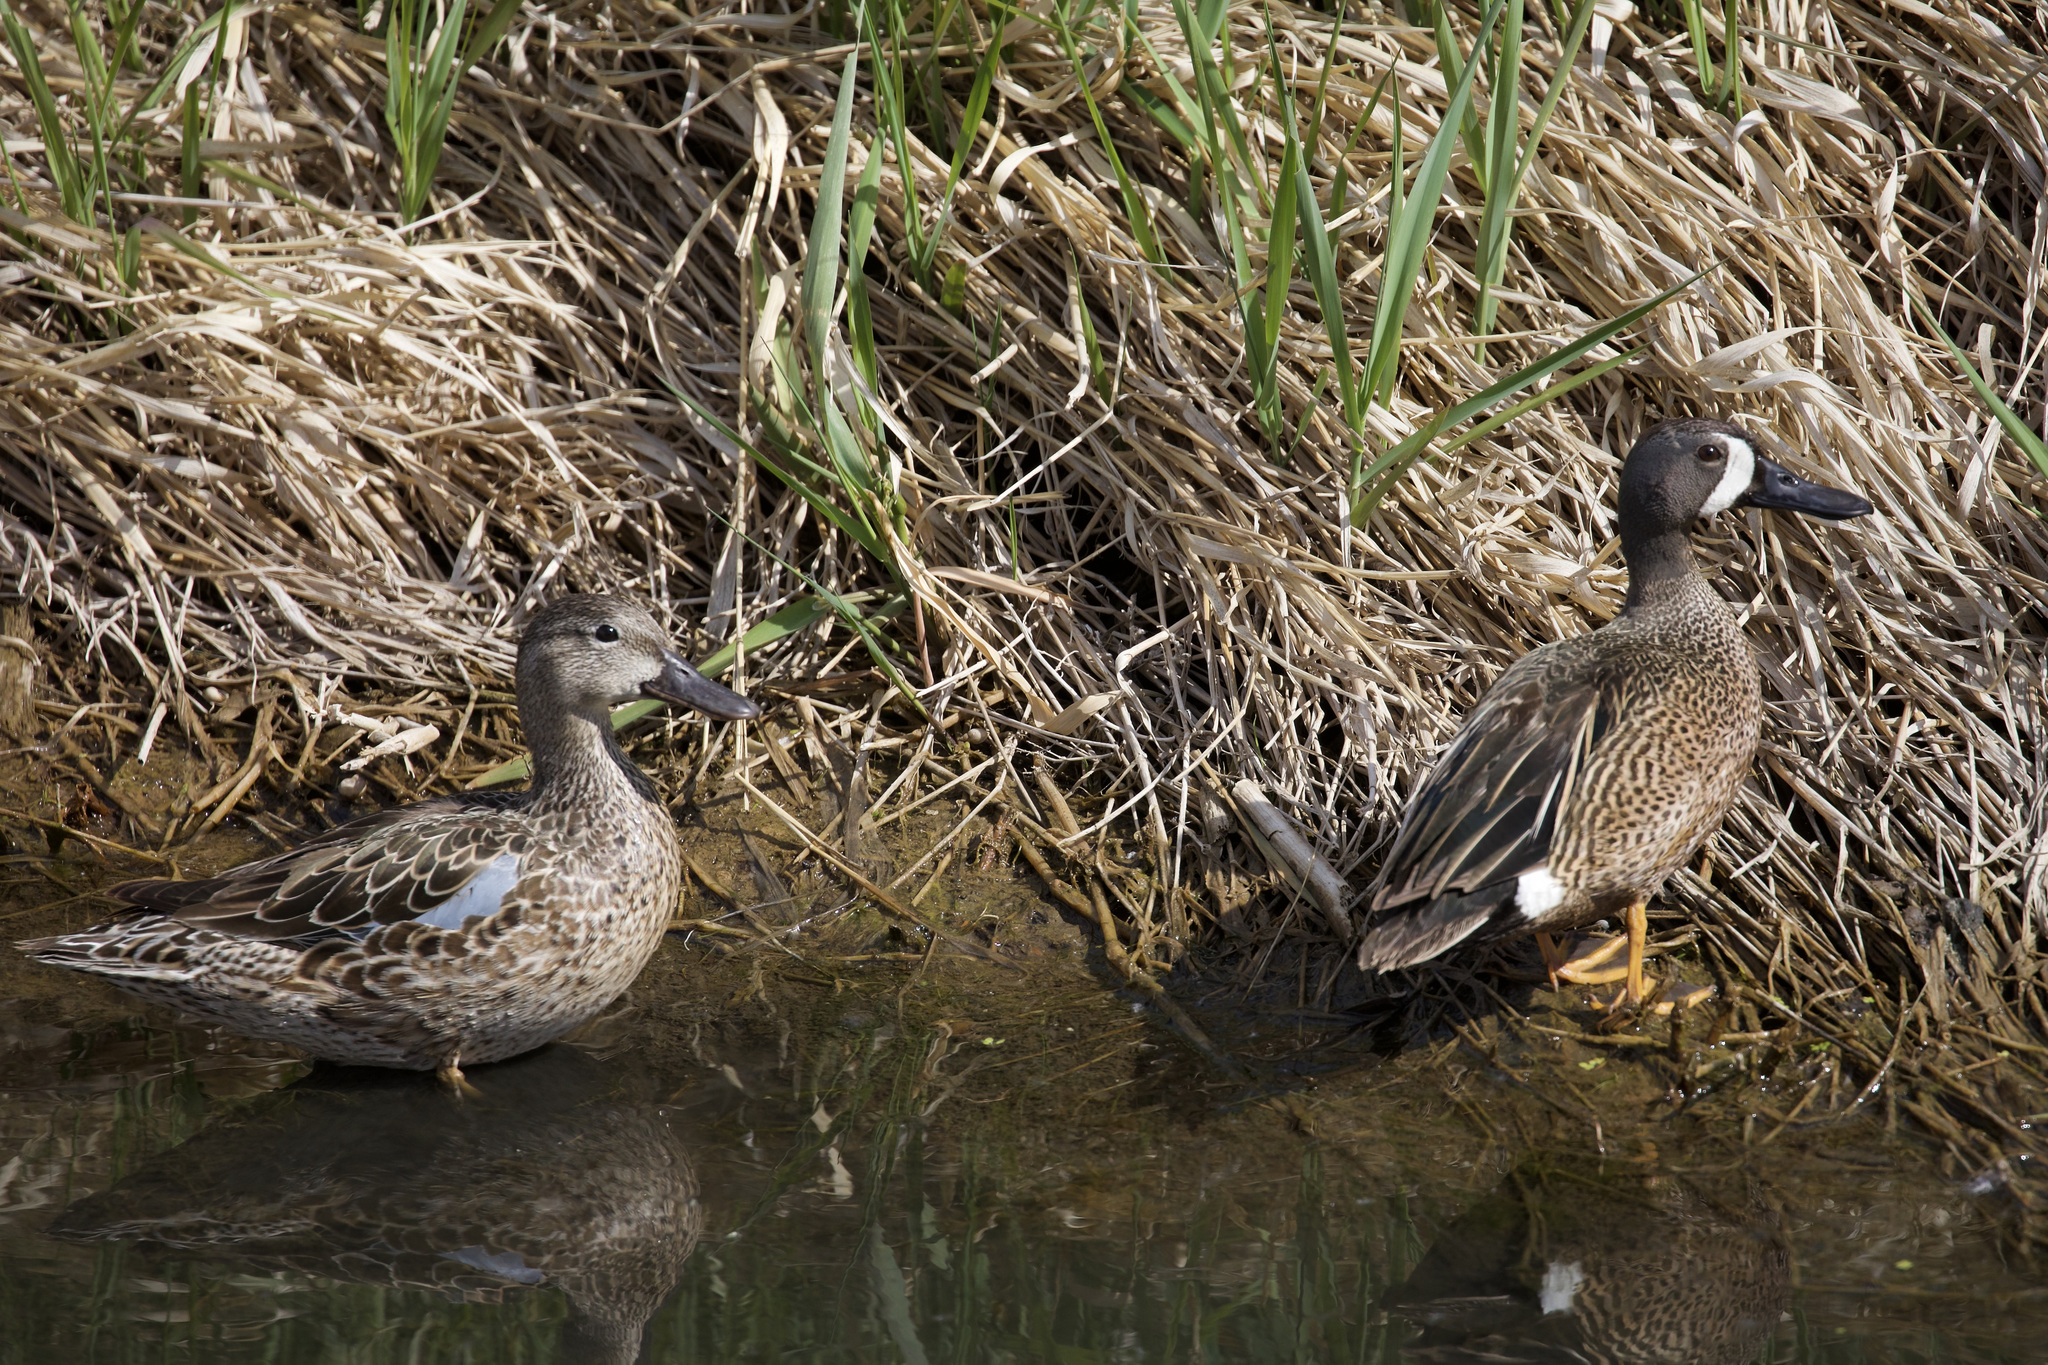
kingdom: Animalia
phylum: Chordata
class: Aves
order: Anseriformes
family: Anatidae
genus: Spatula
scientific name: Spatula discors
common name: Blue-winged teal
